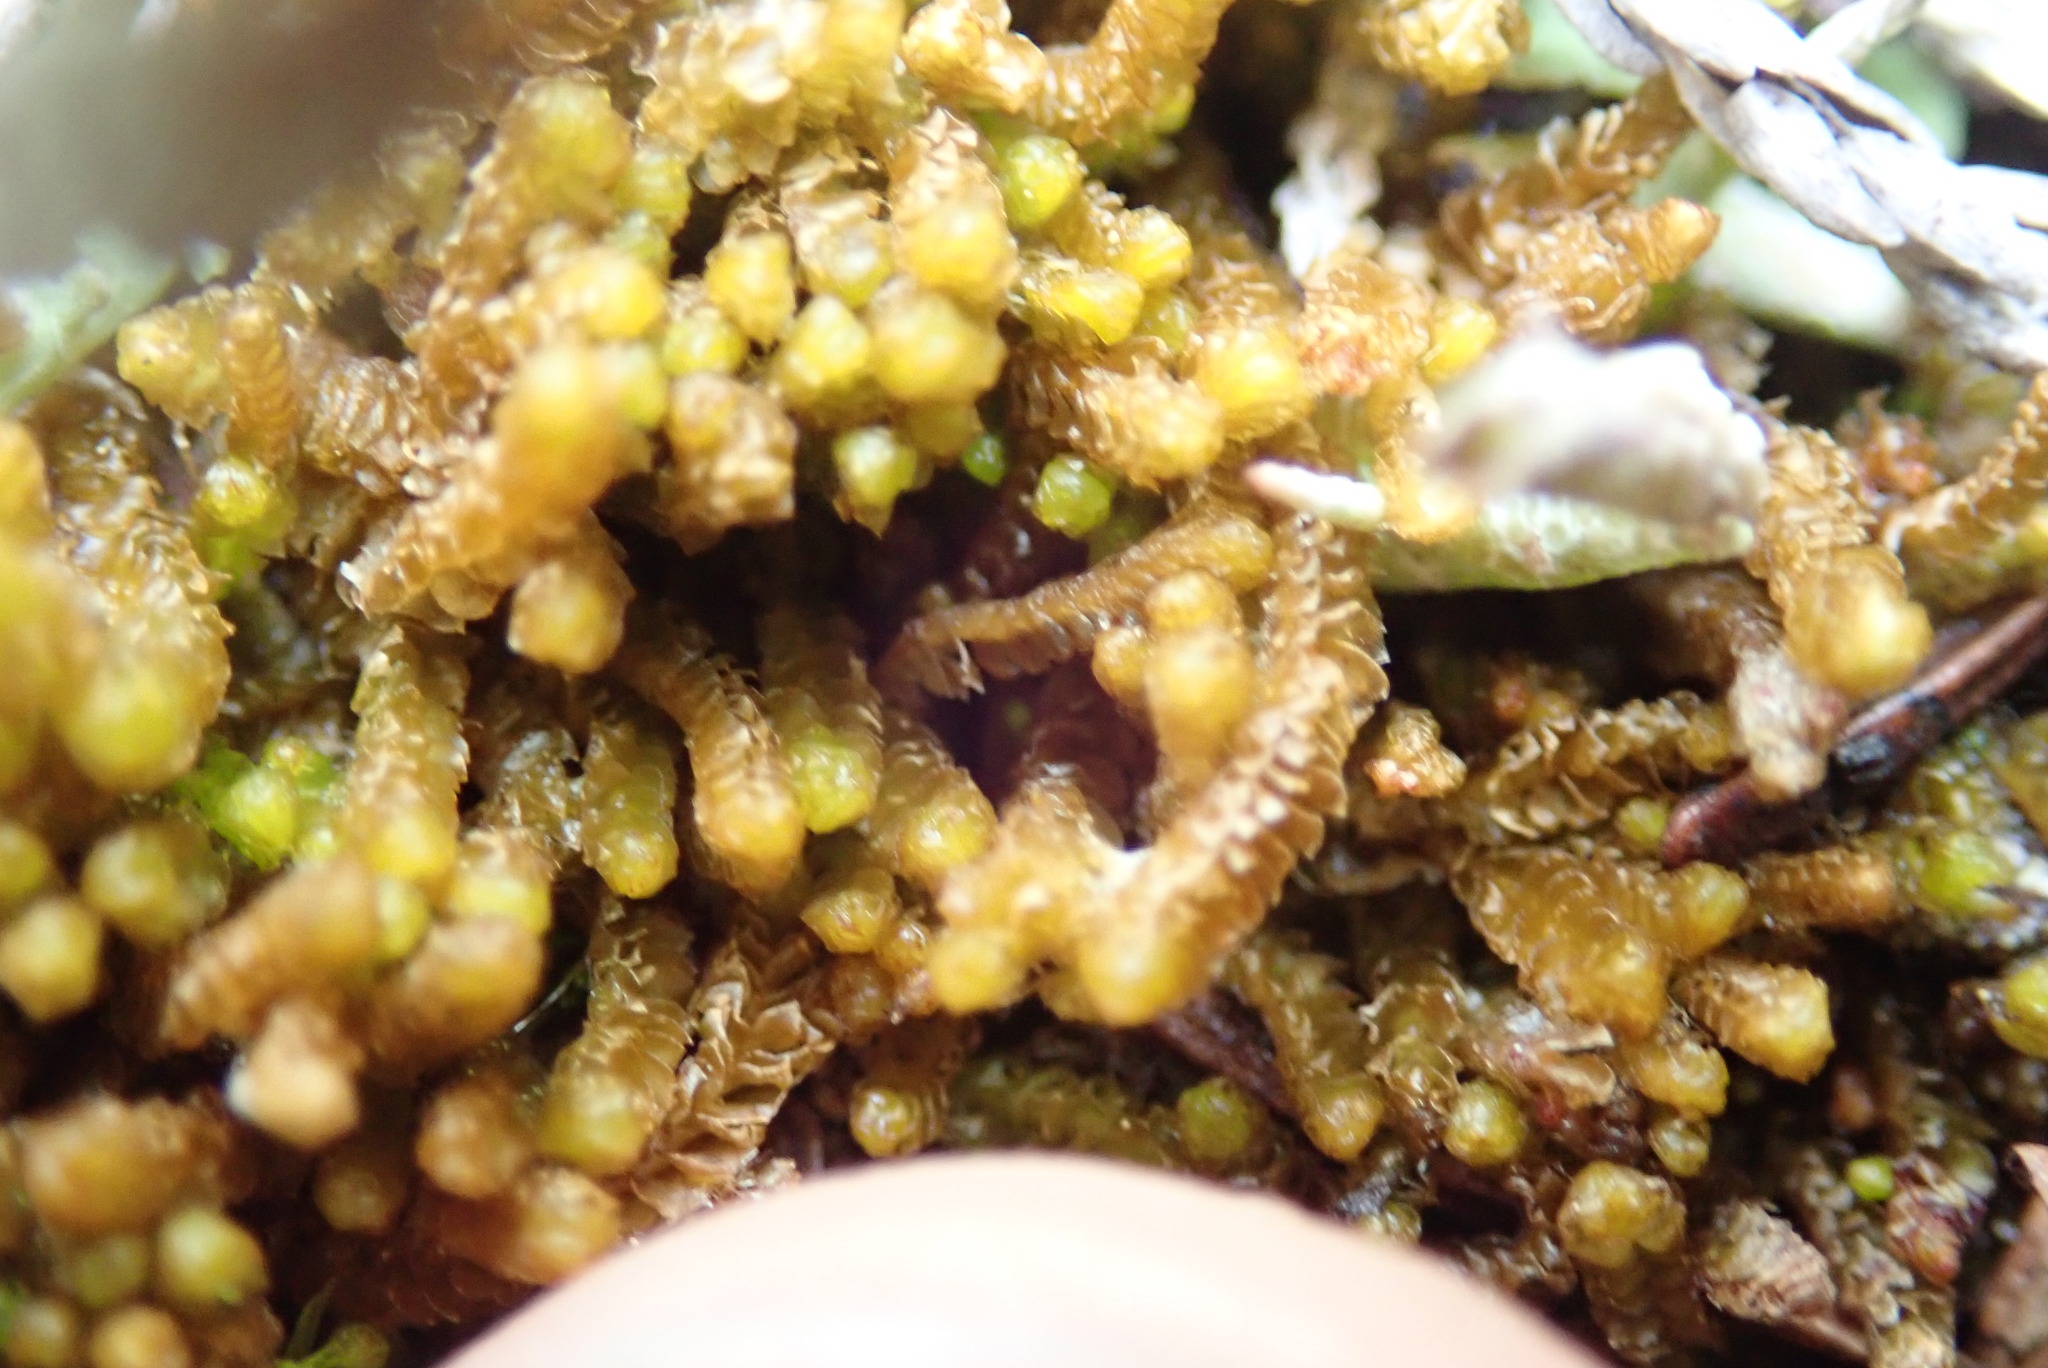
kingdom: Plantae
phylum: Marchantiophyta
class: Jungermanniopsida
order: Jungermanniales
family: Anastrophyllaceae
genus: Neoorthocaulis
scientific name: Neoorthocaulis floerkei
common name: Floerke's barbilophozia
